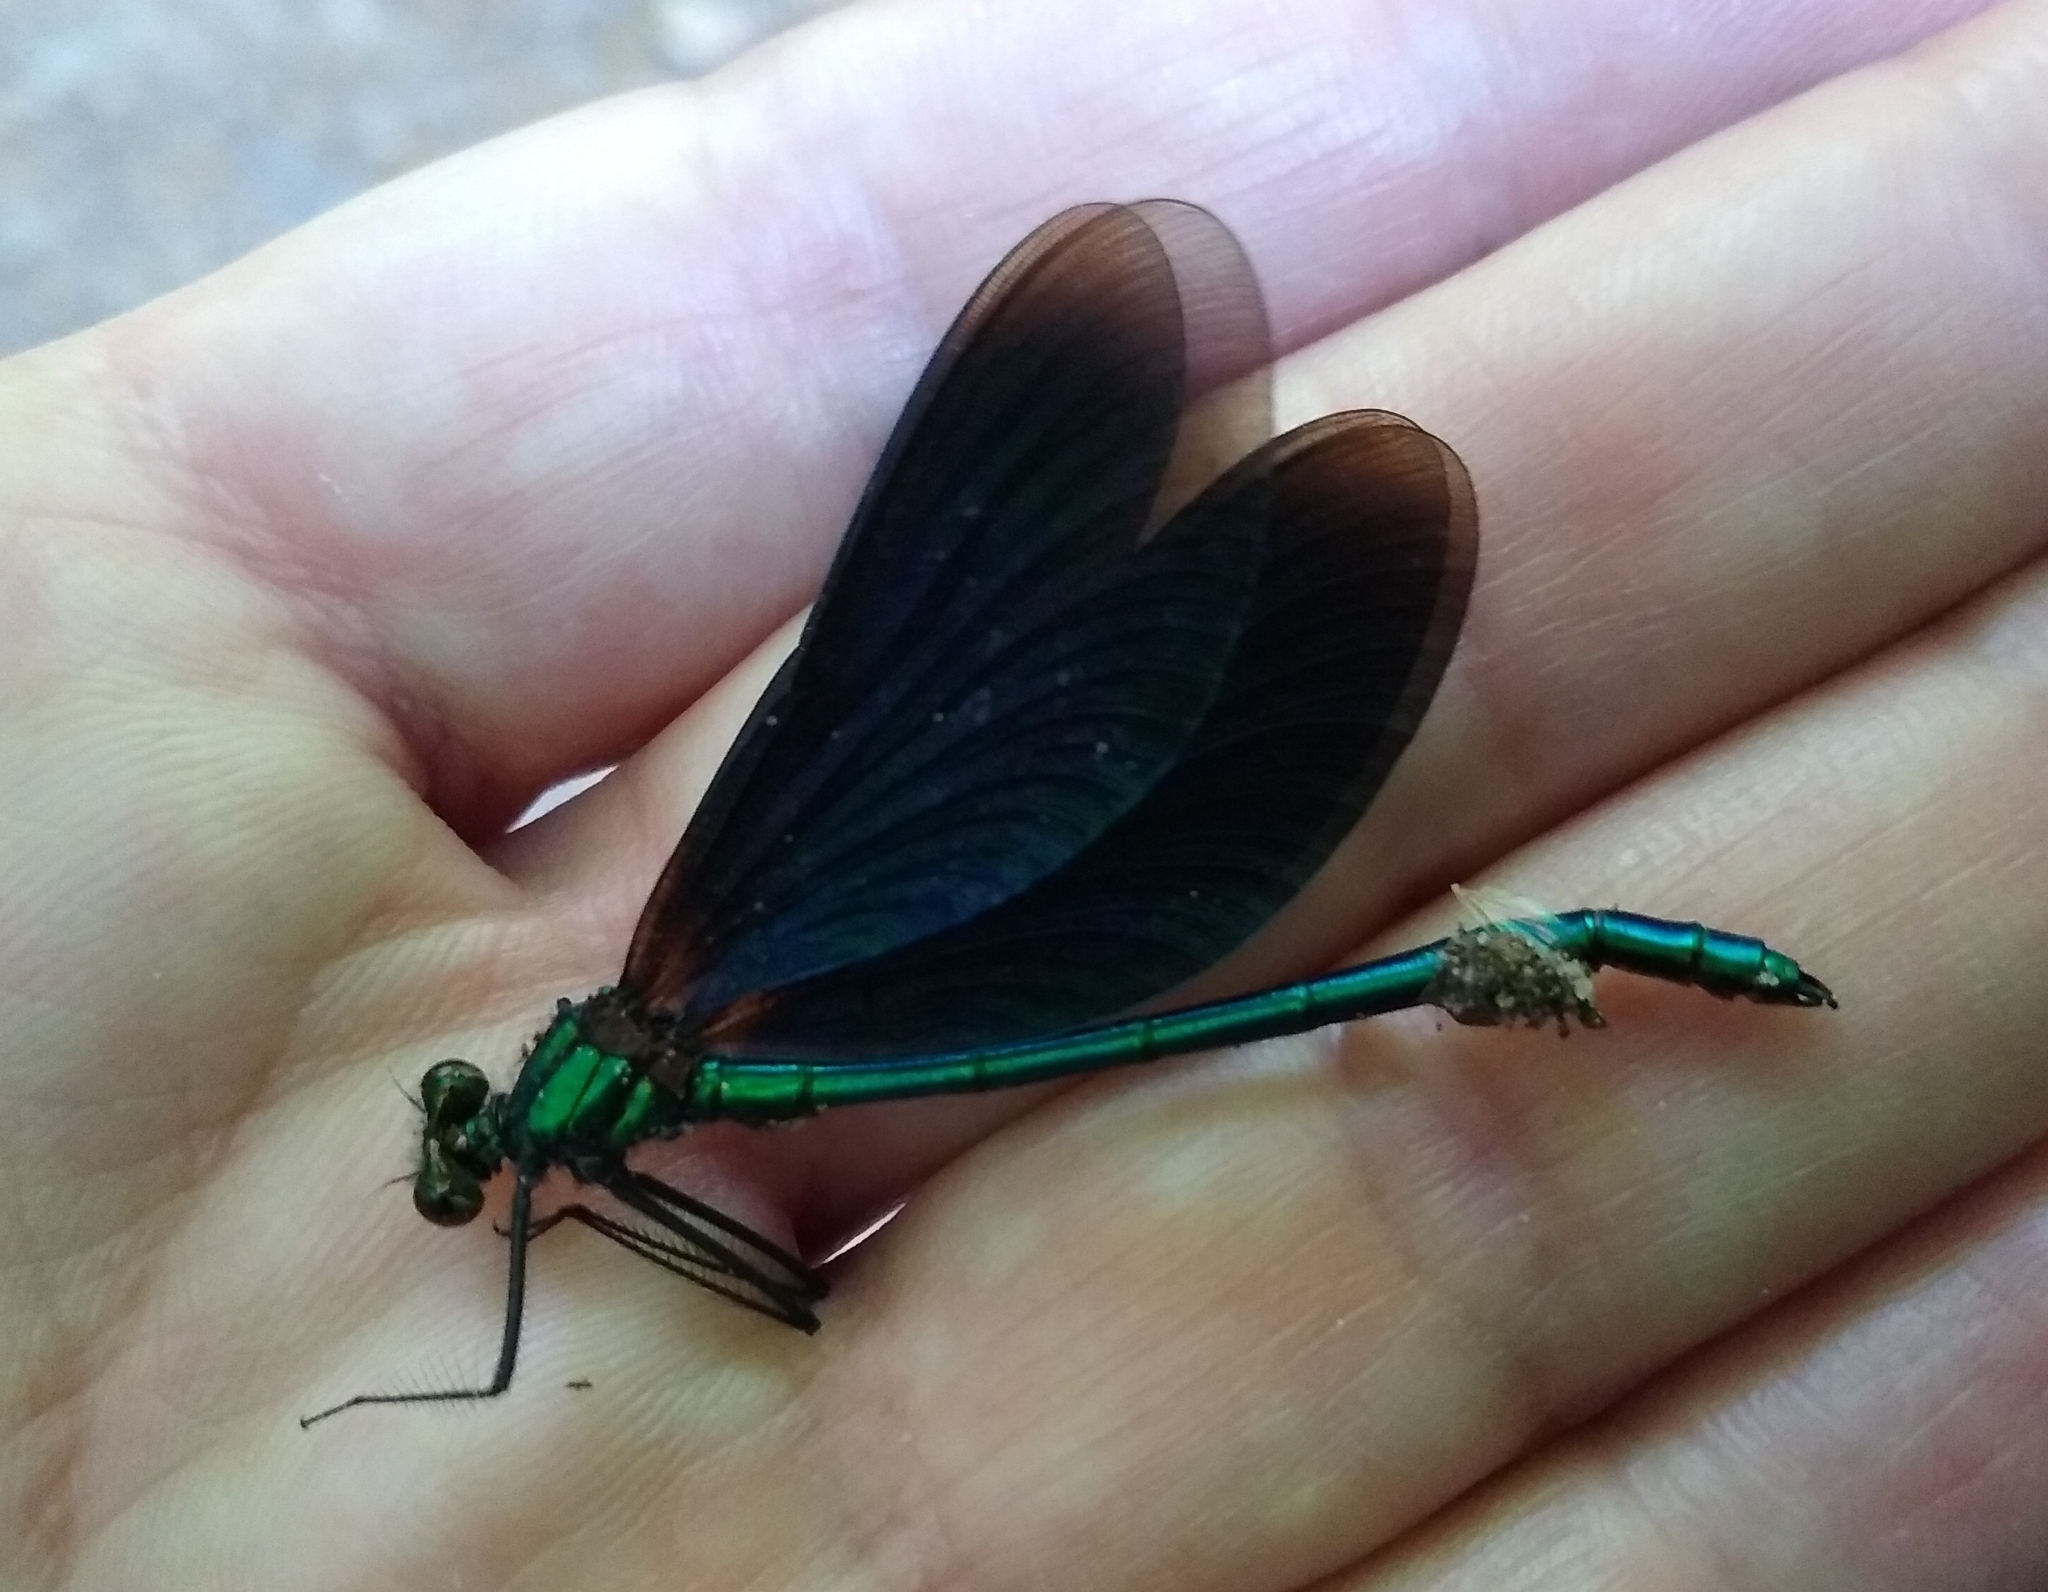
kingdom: Animalia
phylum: Arthropoda
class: Insecta
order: Odonata
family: Calopterygidae
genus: Calopteryx
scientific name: Calopteryx virgo
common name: Beautiful demoiselle
